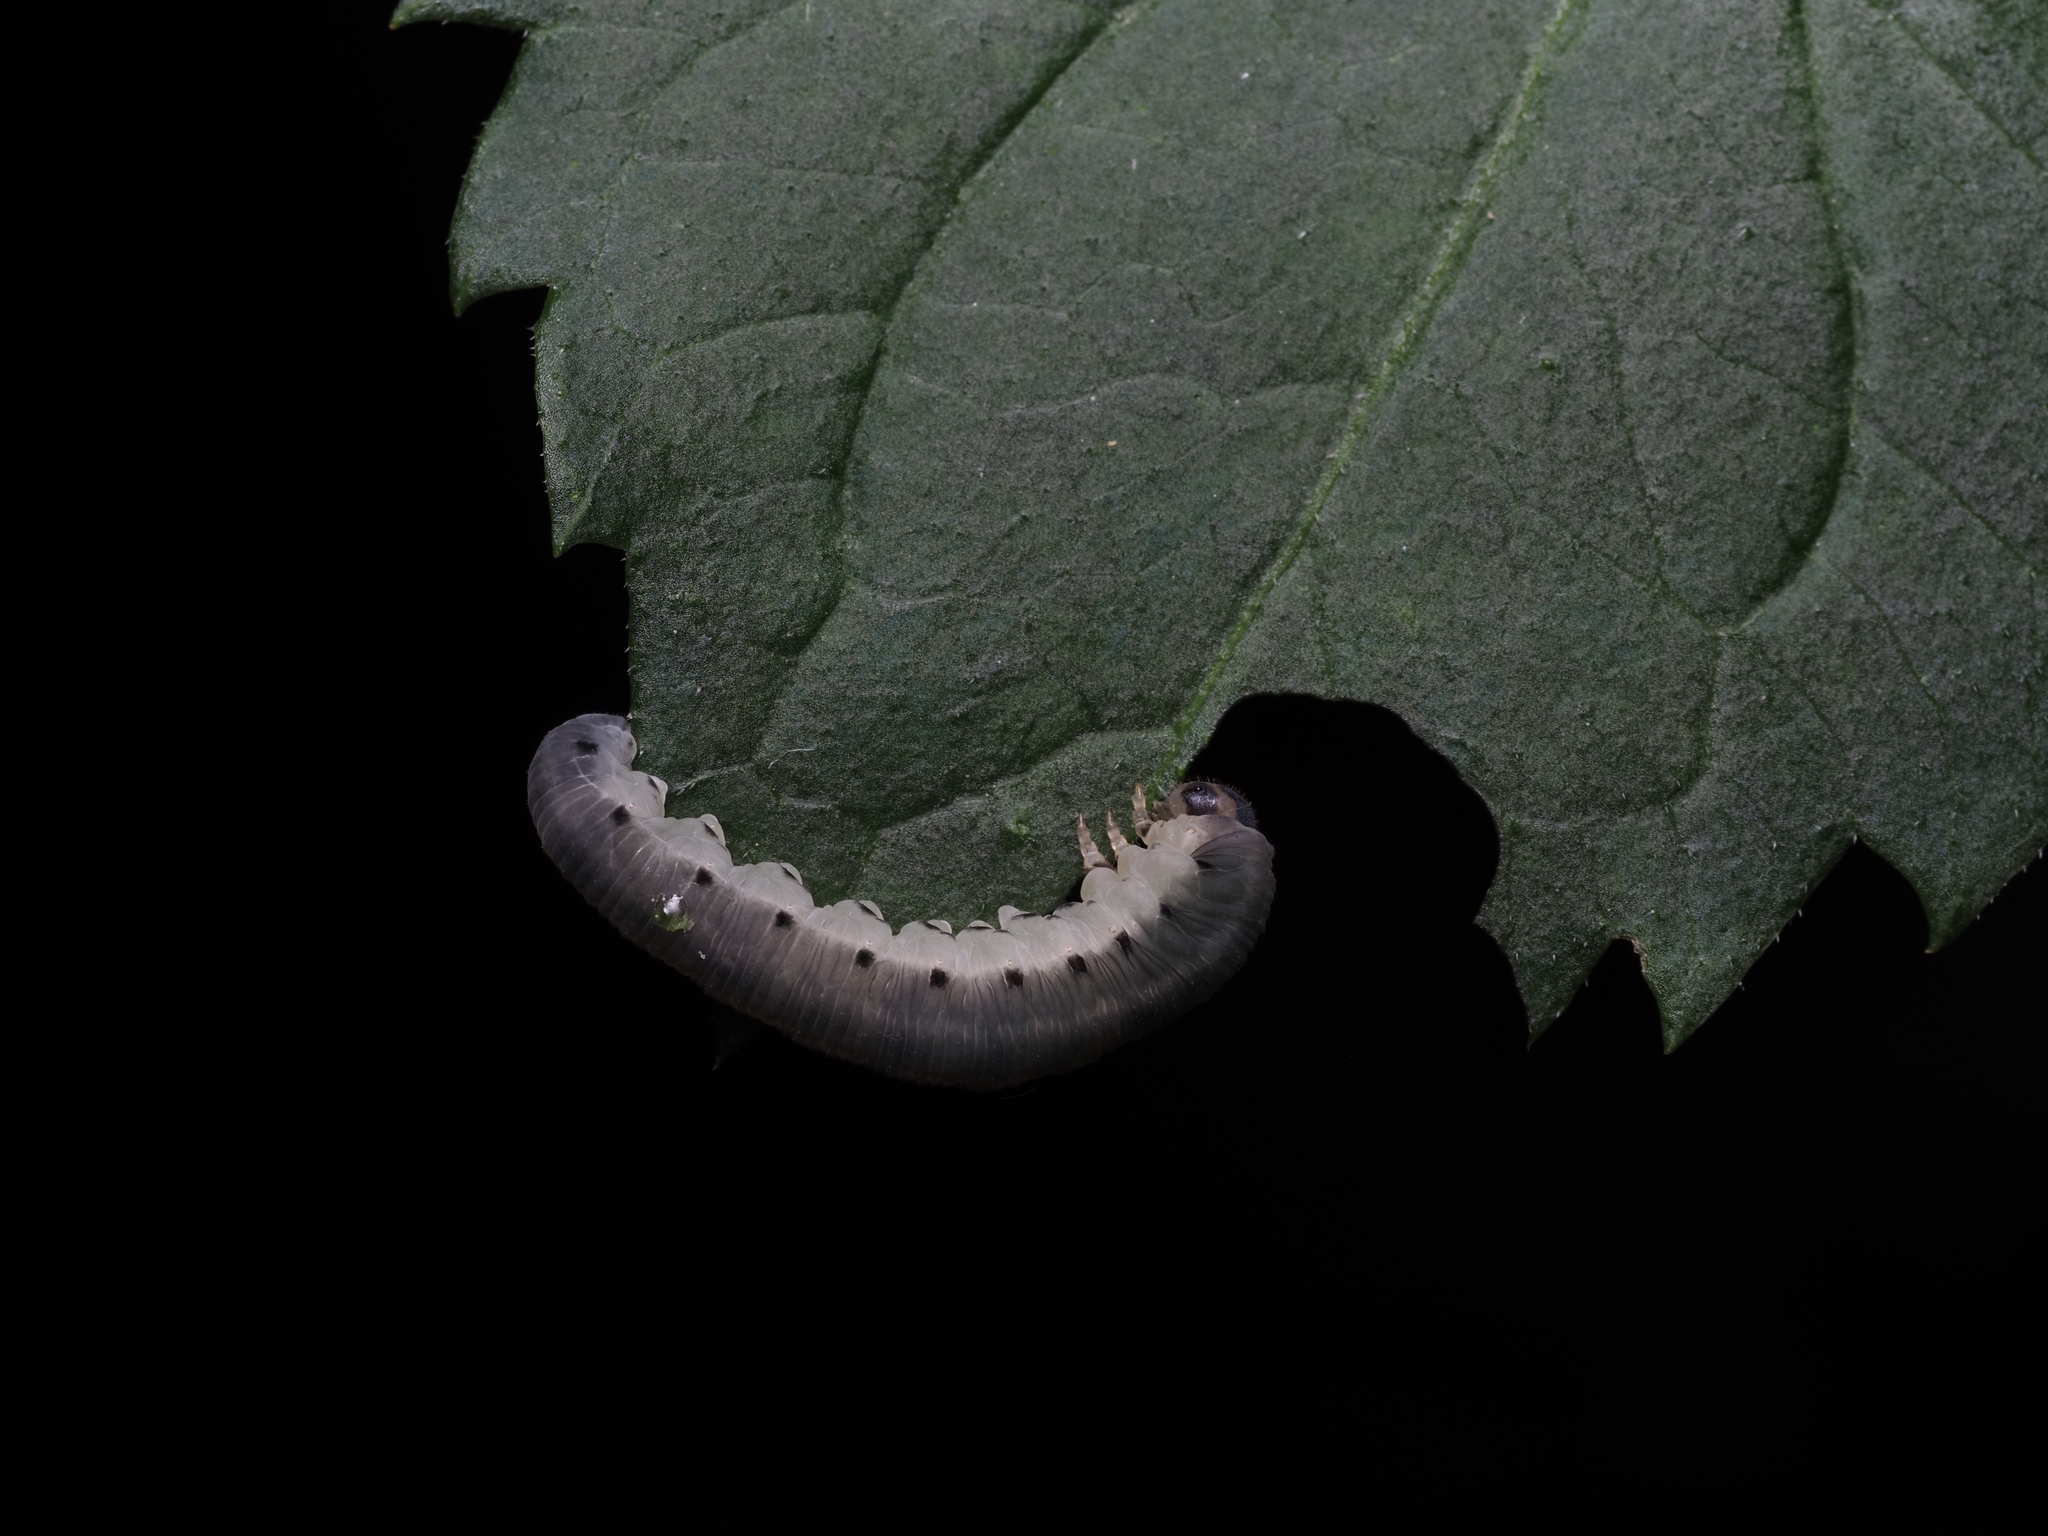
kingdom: Animalia
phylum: Arthropoda
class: Insecta
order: Hymenoptera
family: Tenthredinidae
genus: Macrophya
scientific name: Macrophya alboannulata
